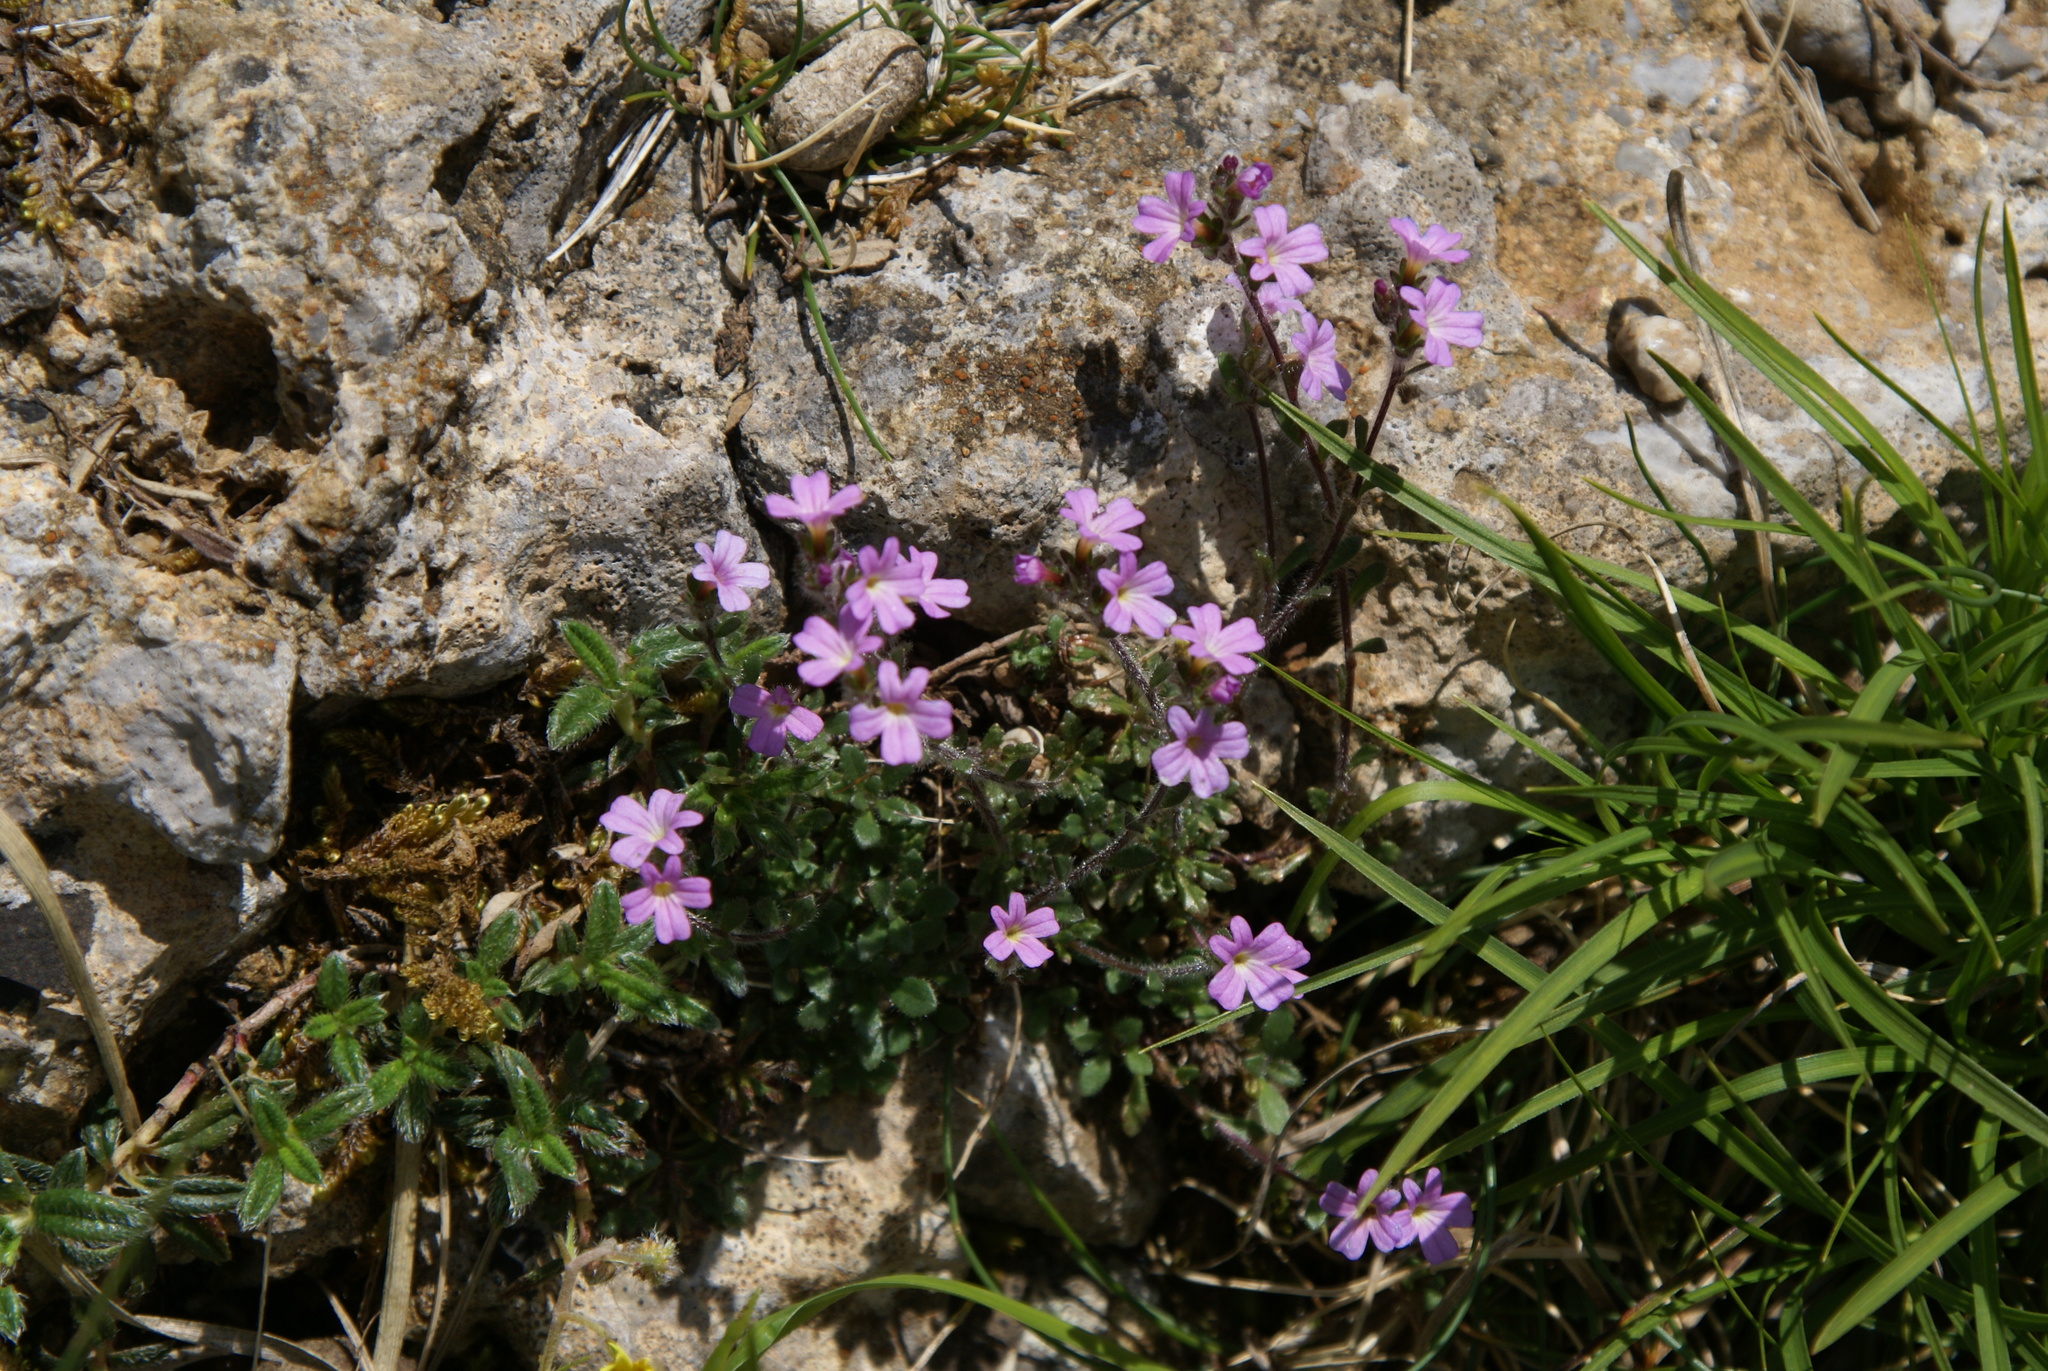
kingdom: Plantae
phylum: Tracheophyta
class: Magnoliopsida
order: Lamiales
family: Plantaginaceae
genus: Erinus
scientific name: Erinus alpinus
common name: Fairy foxglove
